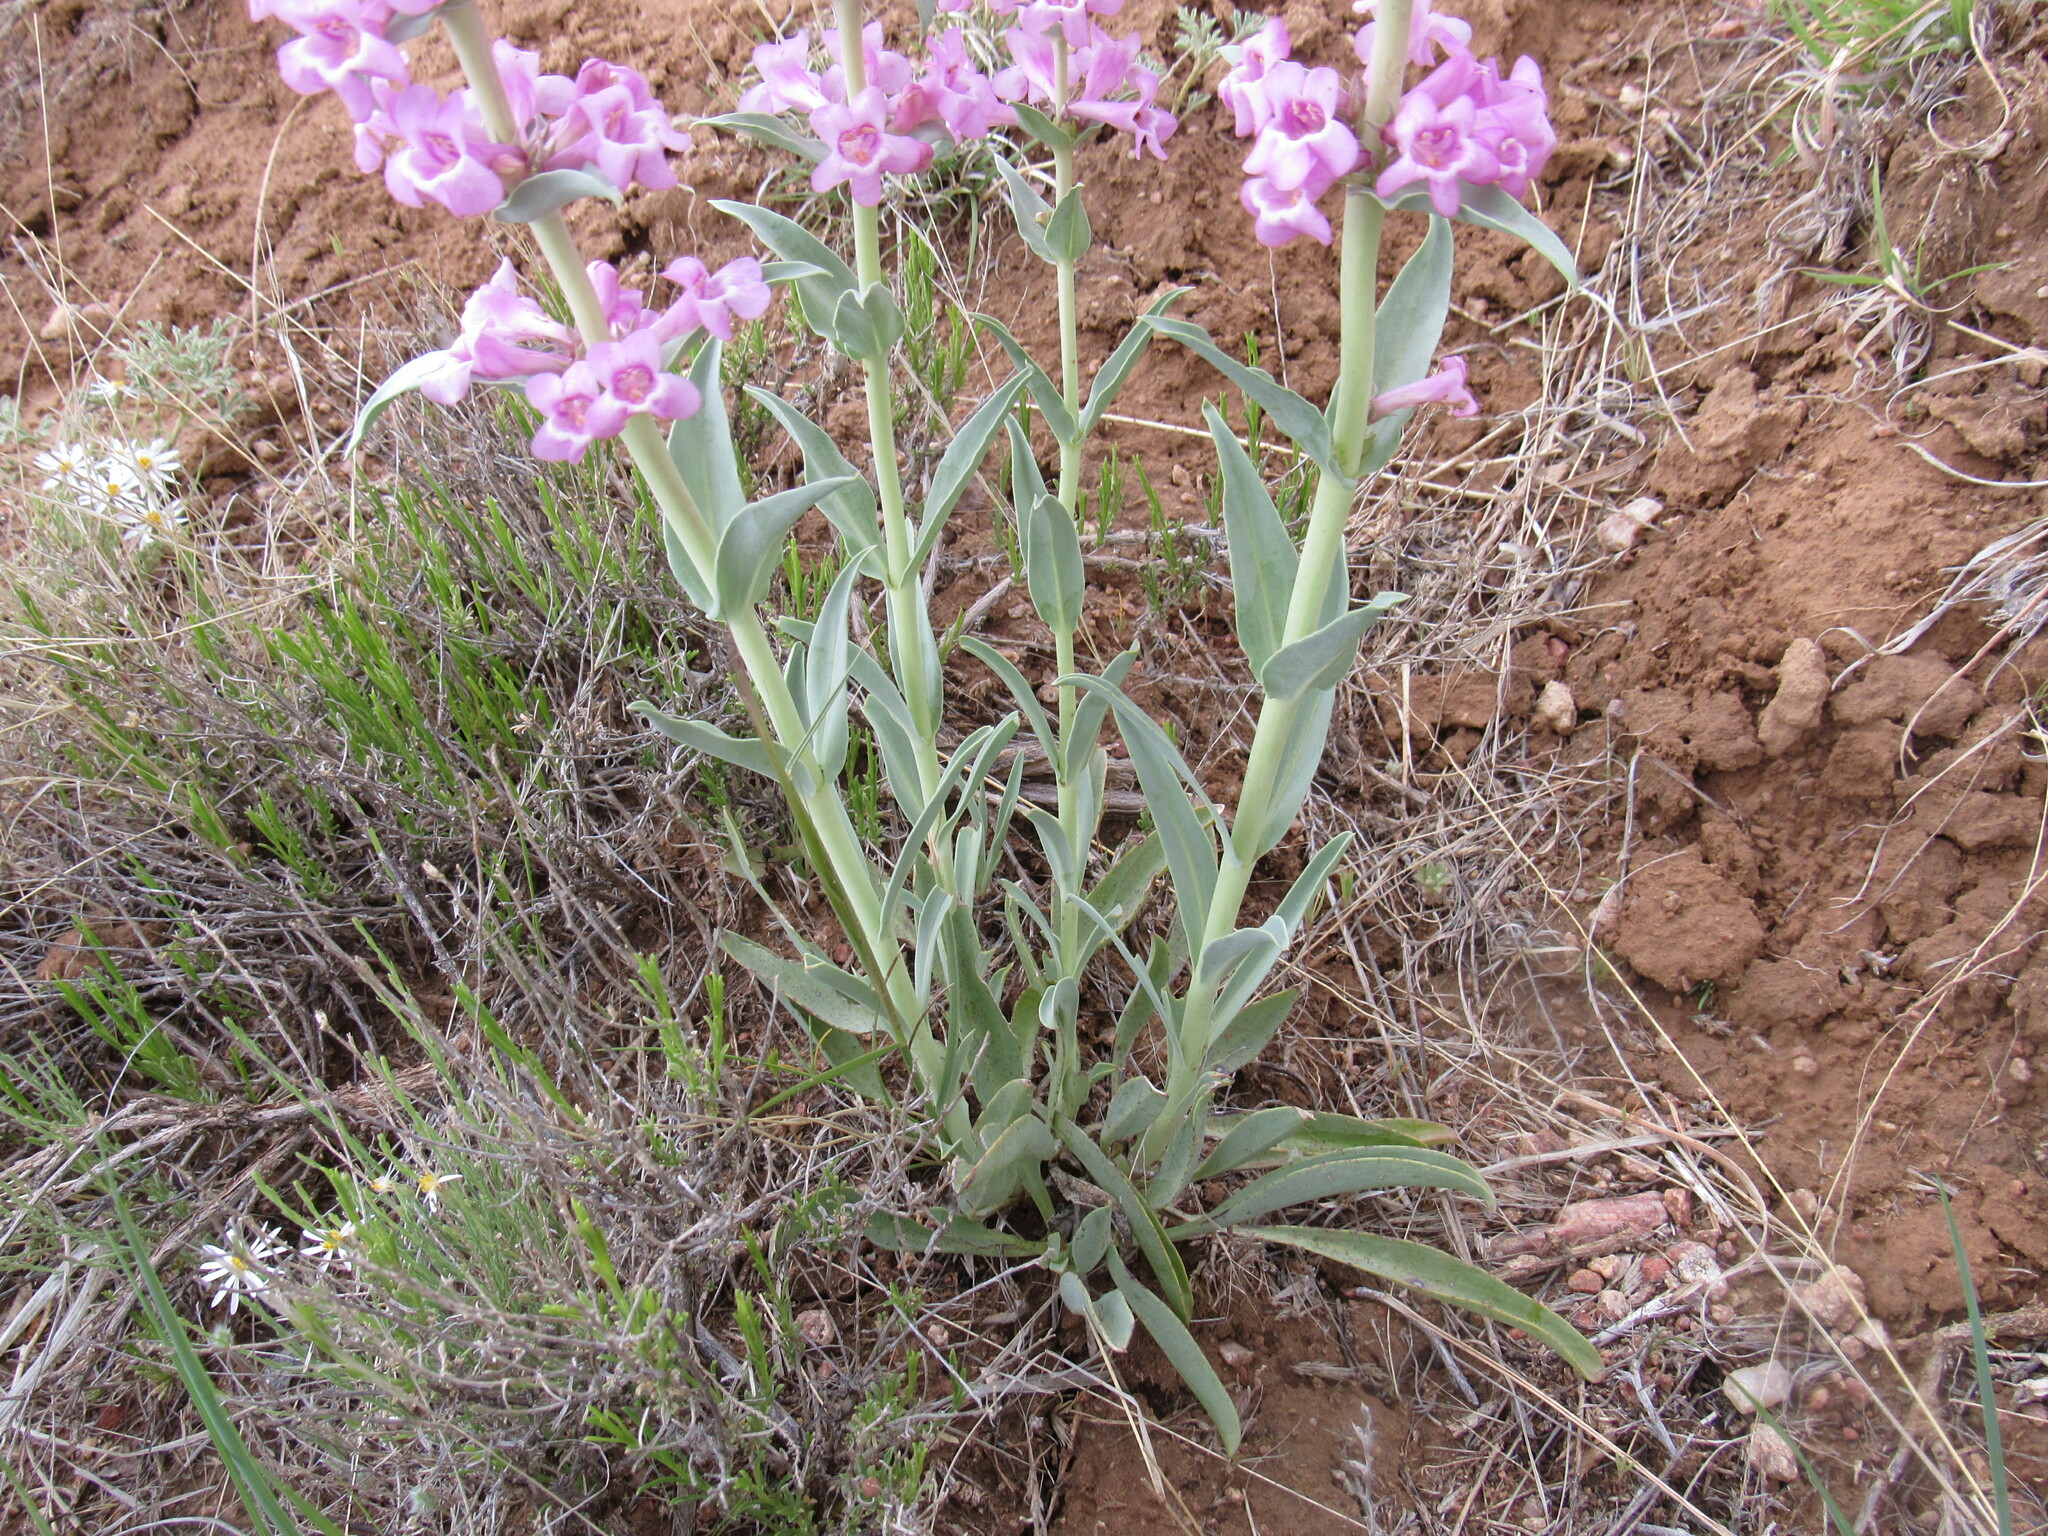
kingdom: Plantae
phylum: Tracheophyta
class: Magnoliopsida
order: Lamiales
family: Plantaginaceae
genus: Penstemon
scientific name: Penstemon angustifolius
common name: Narrow beardtongue
